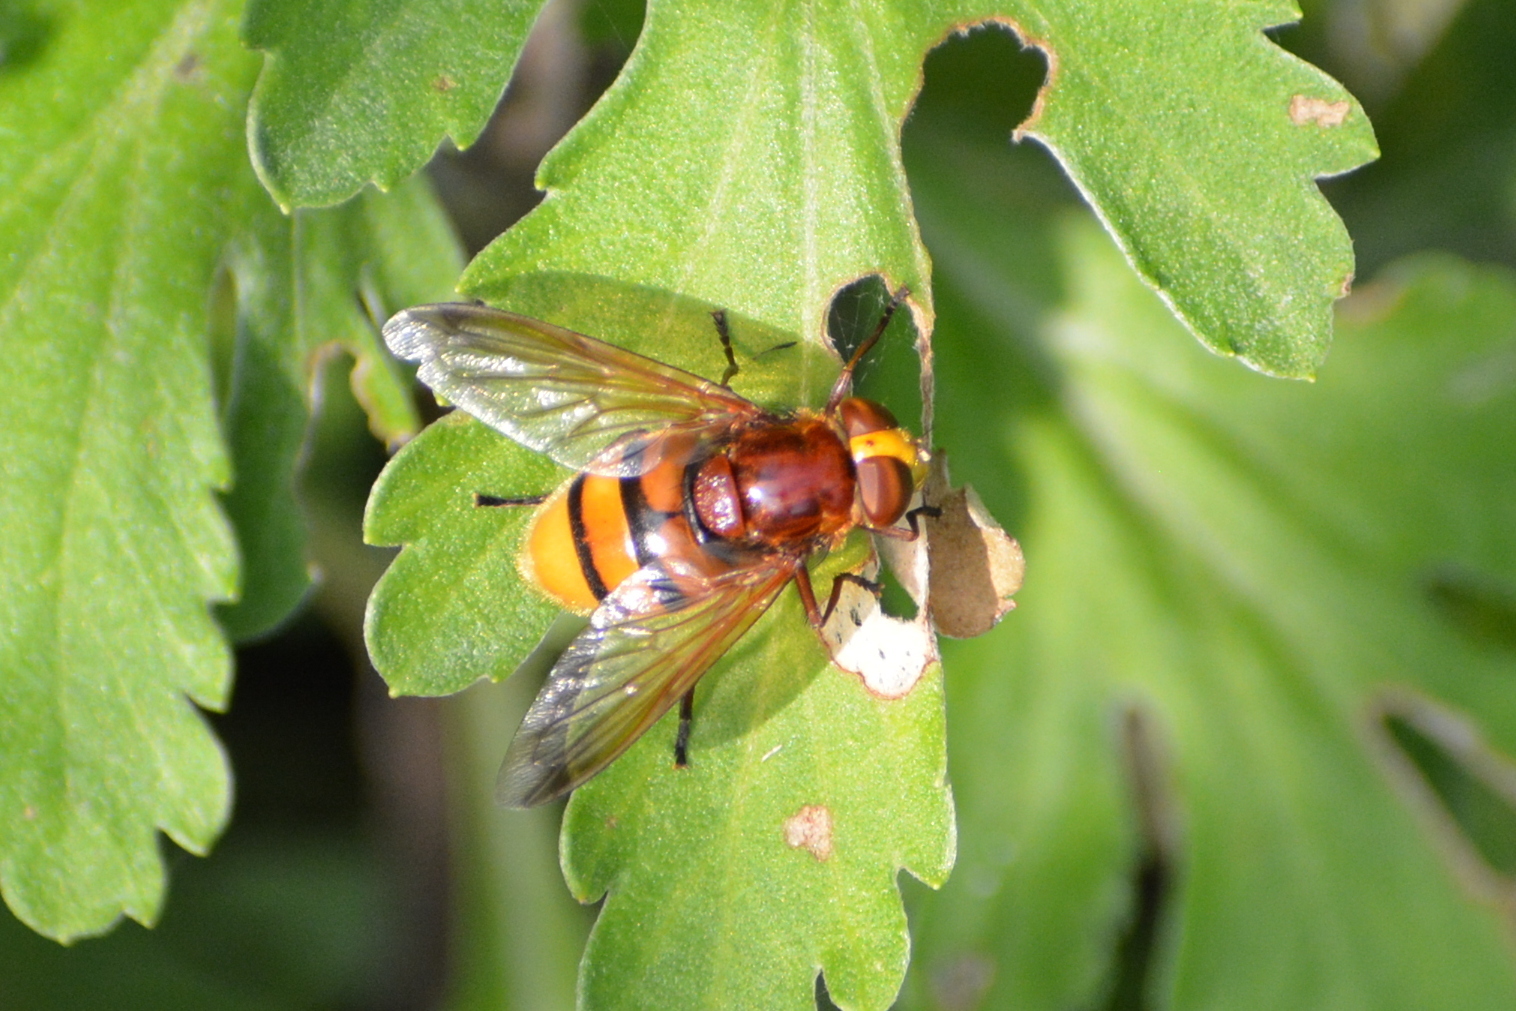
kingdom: Animalia
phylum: Arthropoda
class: Insecta
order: Diptera
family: Syrphidae
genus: Volucella
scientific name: Volucella zonaria
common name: Hornet hoverfly
